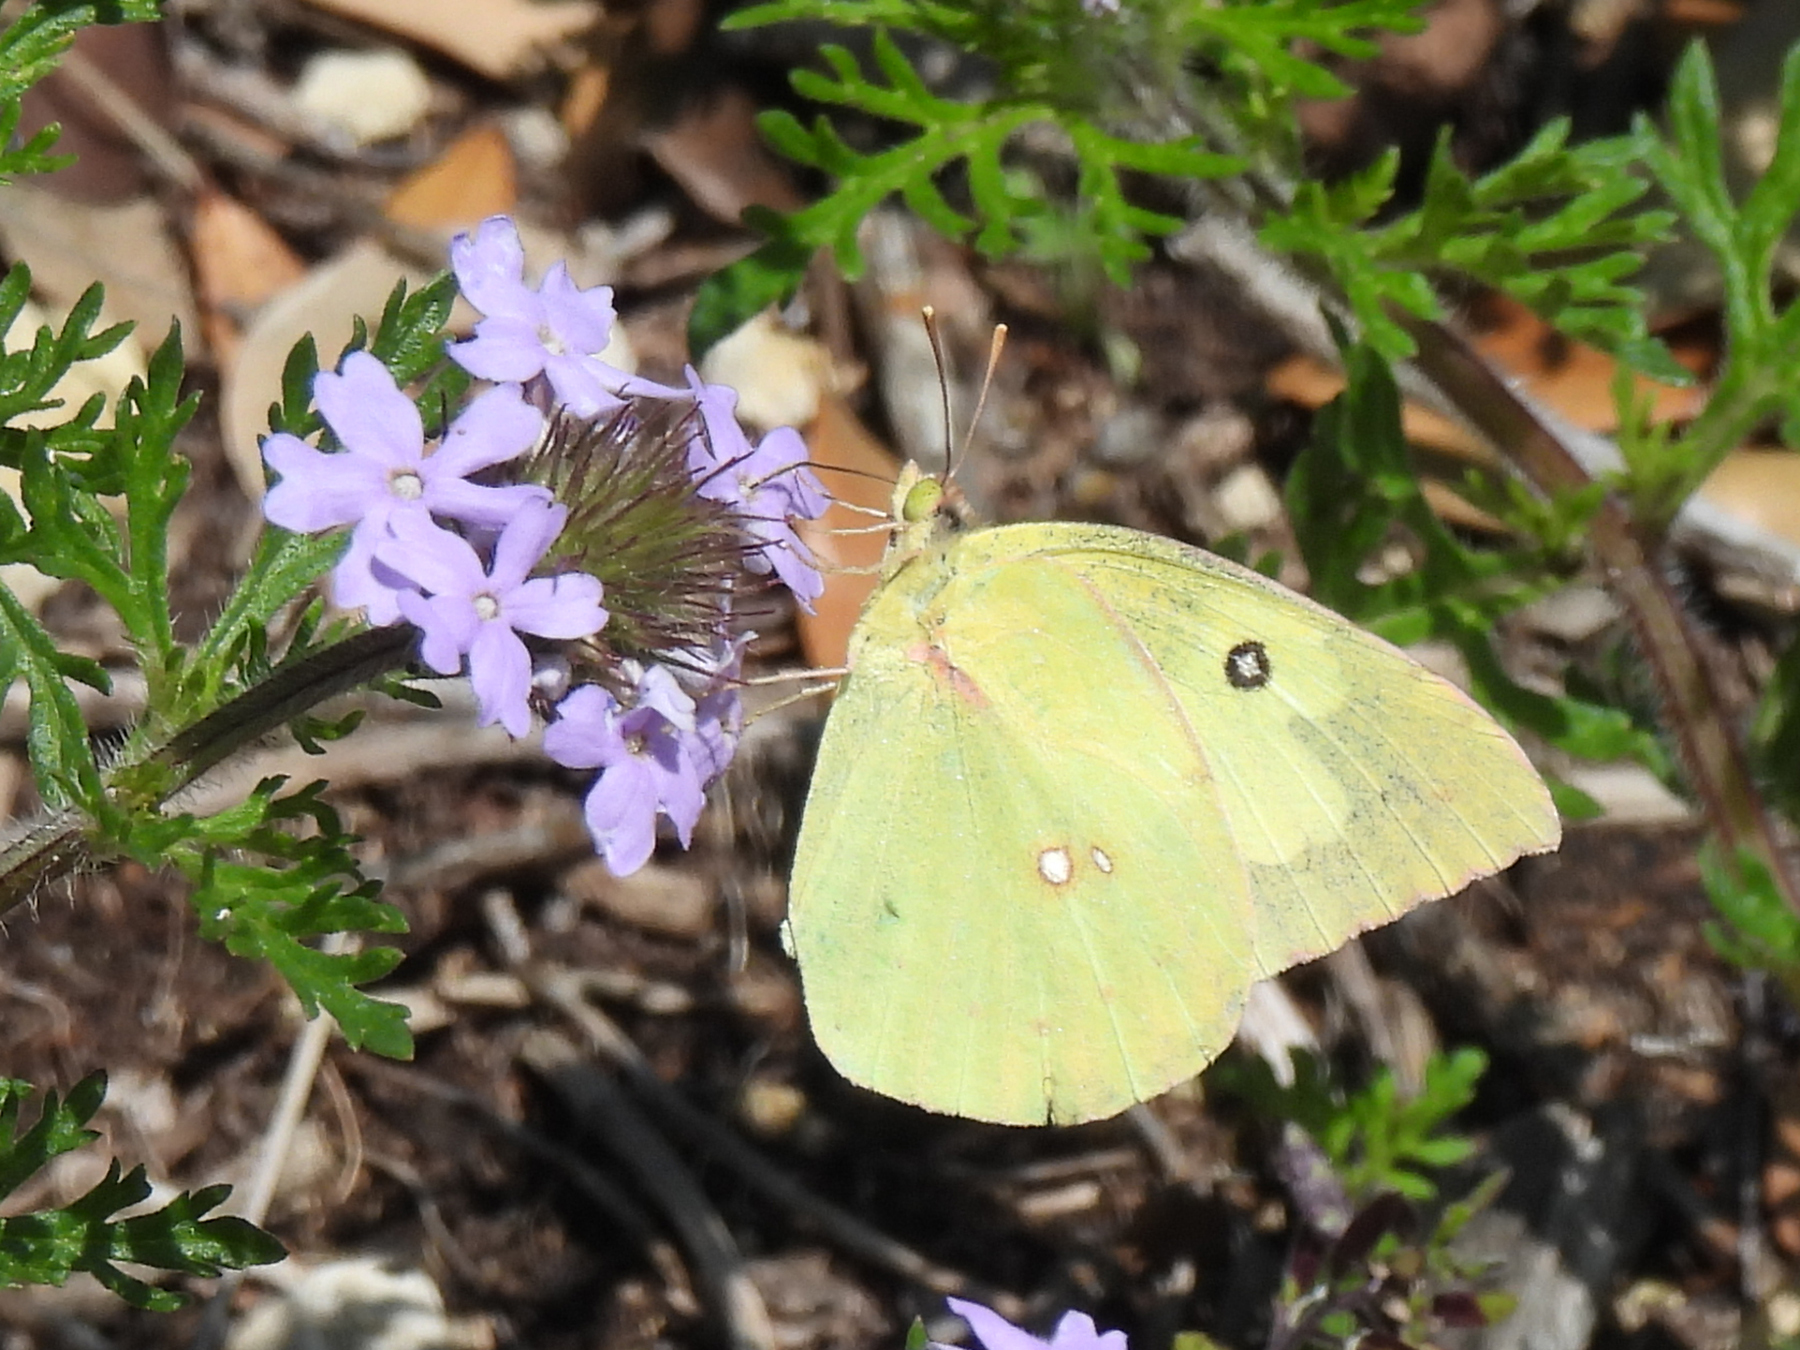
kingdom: Animalia
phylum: Arthropoda
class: Insecta
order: Lepidoptera
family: Pieridae
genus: Zerene
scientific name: Zerene cesonia
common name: Southern dogface
